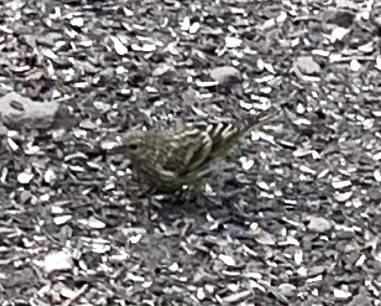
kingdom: Animalia
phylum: Chordata
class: Aves
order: Passeriformes
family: Fringillidae
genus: Spinus
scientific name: Spinus pinus
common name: Pine siskin
